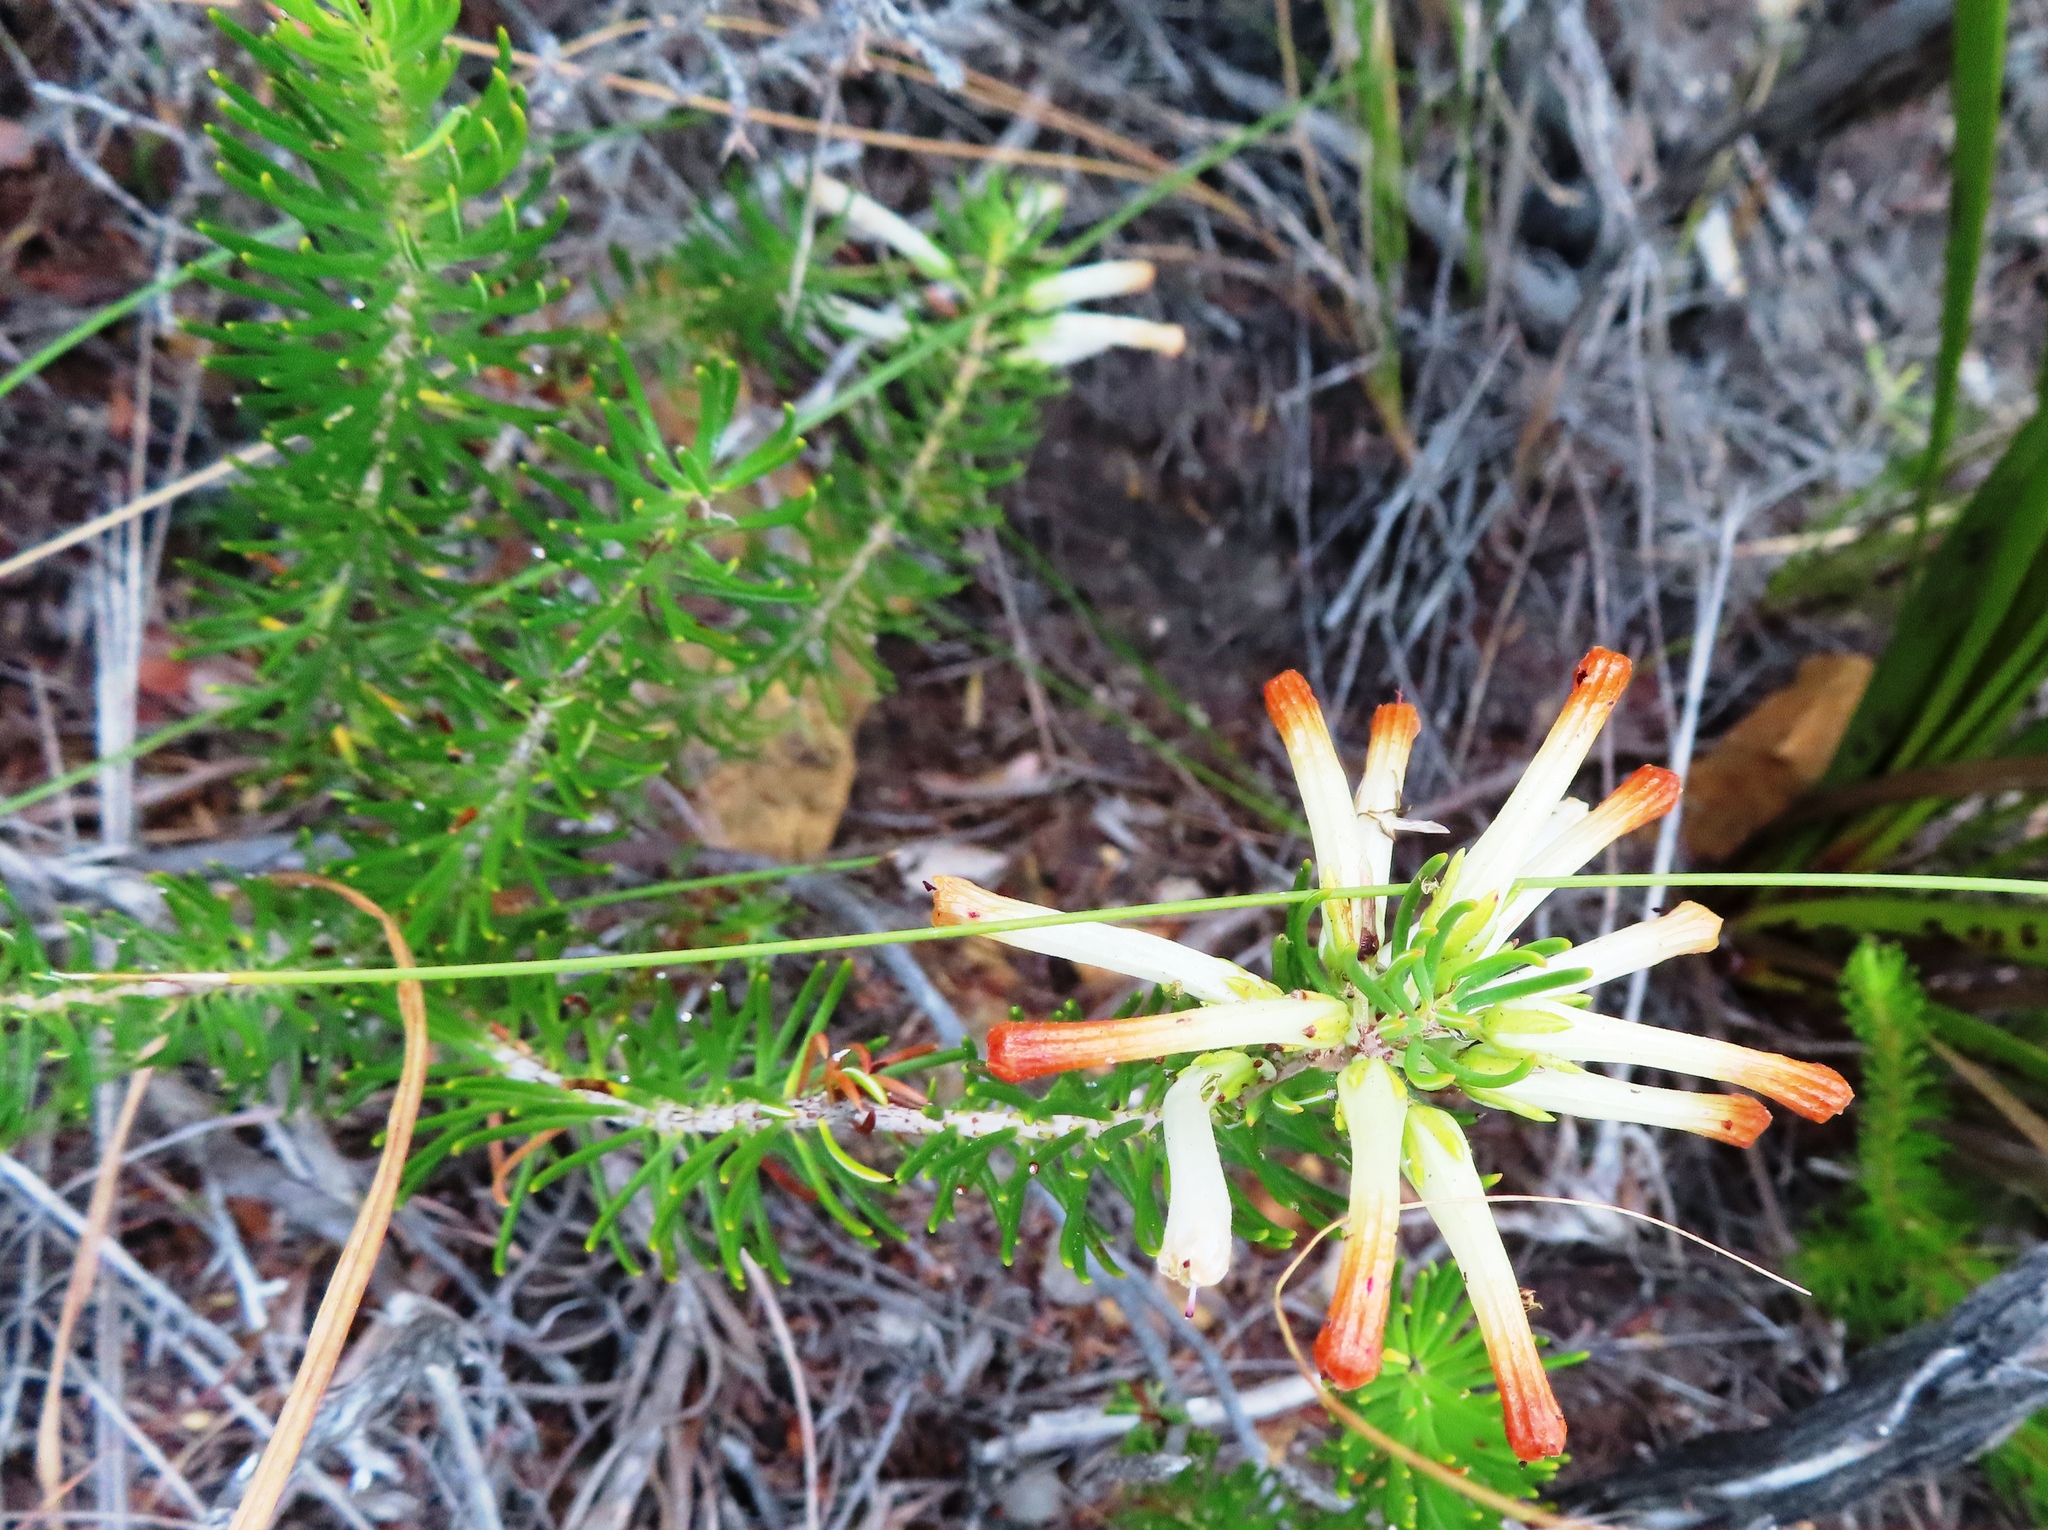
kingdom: Plantae
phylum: Tracheophyta
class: Magnoliopsida
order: Ericales
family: Ericaceae
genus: Erica
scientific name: Erica thomae
